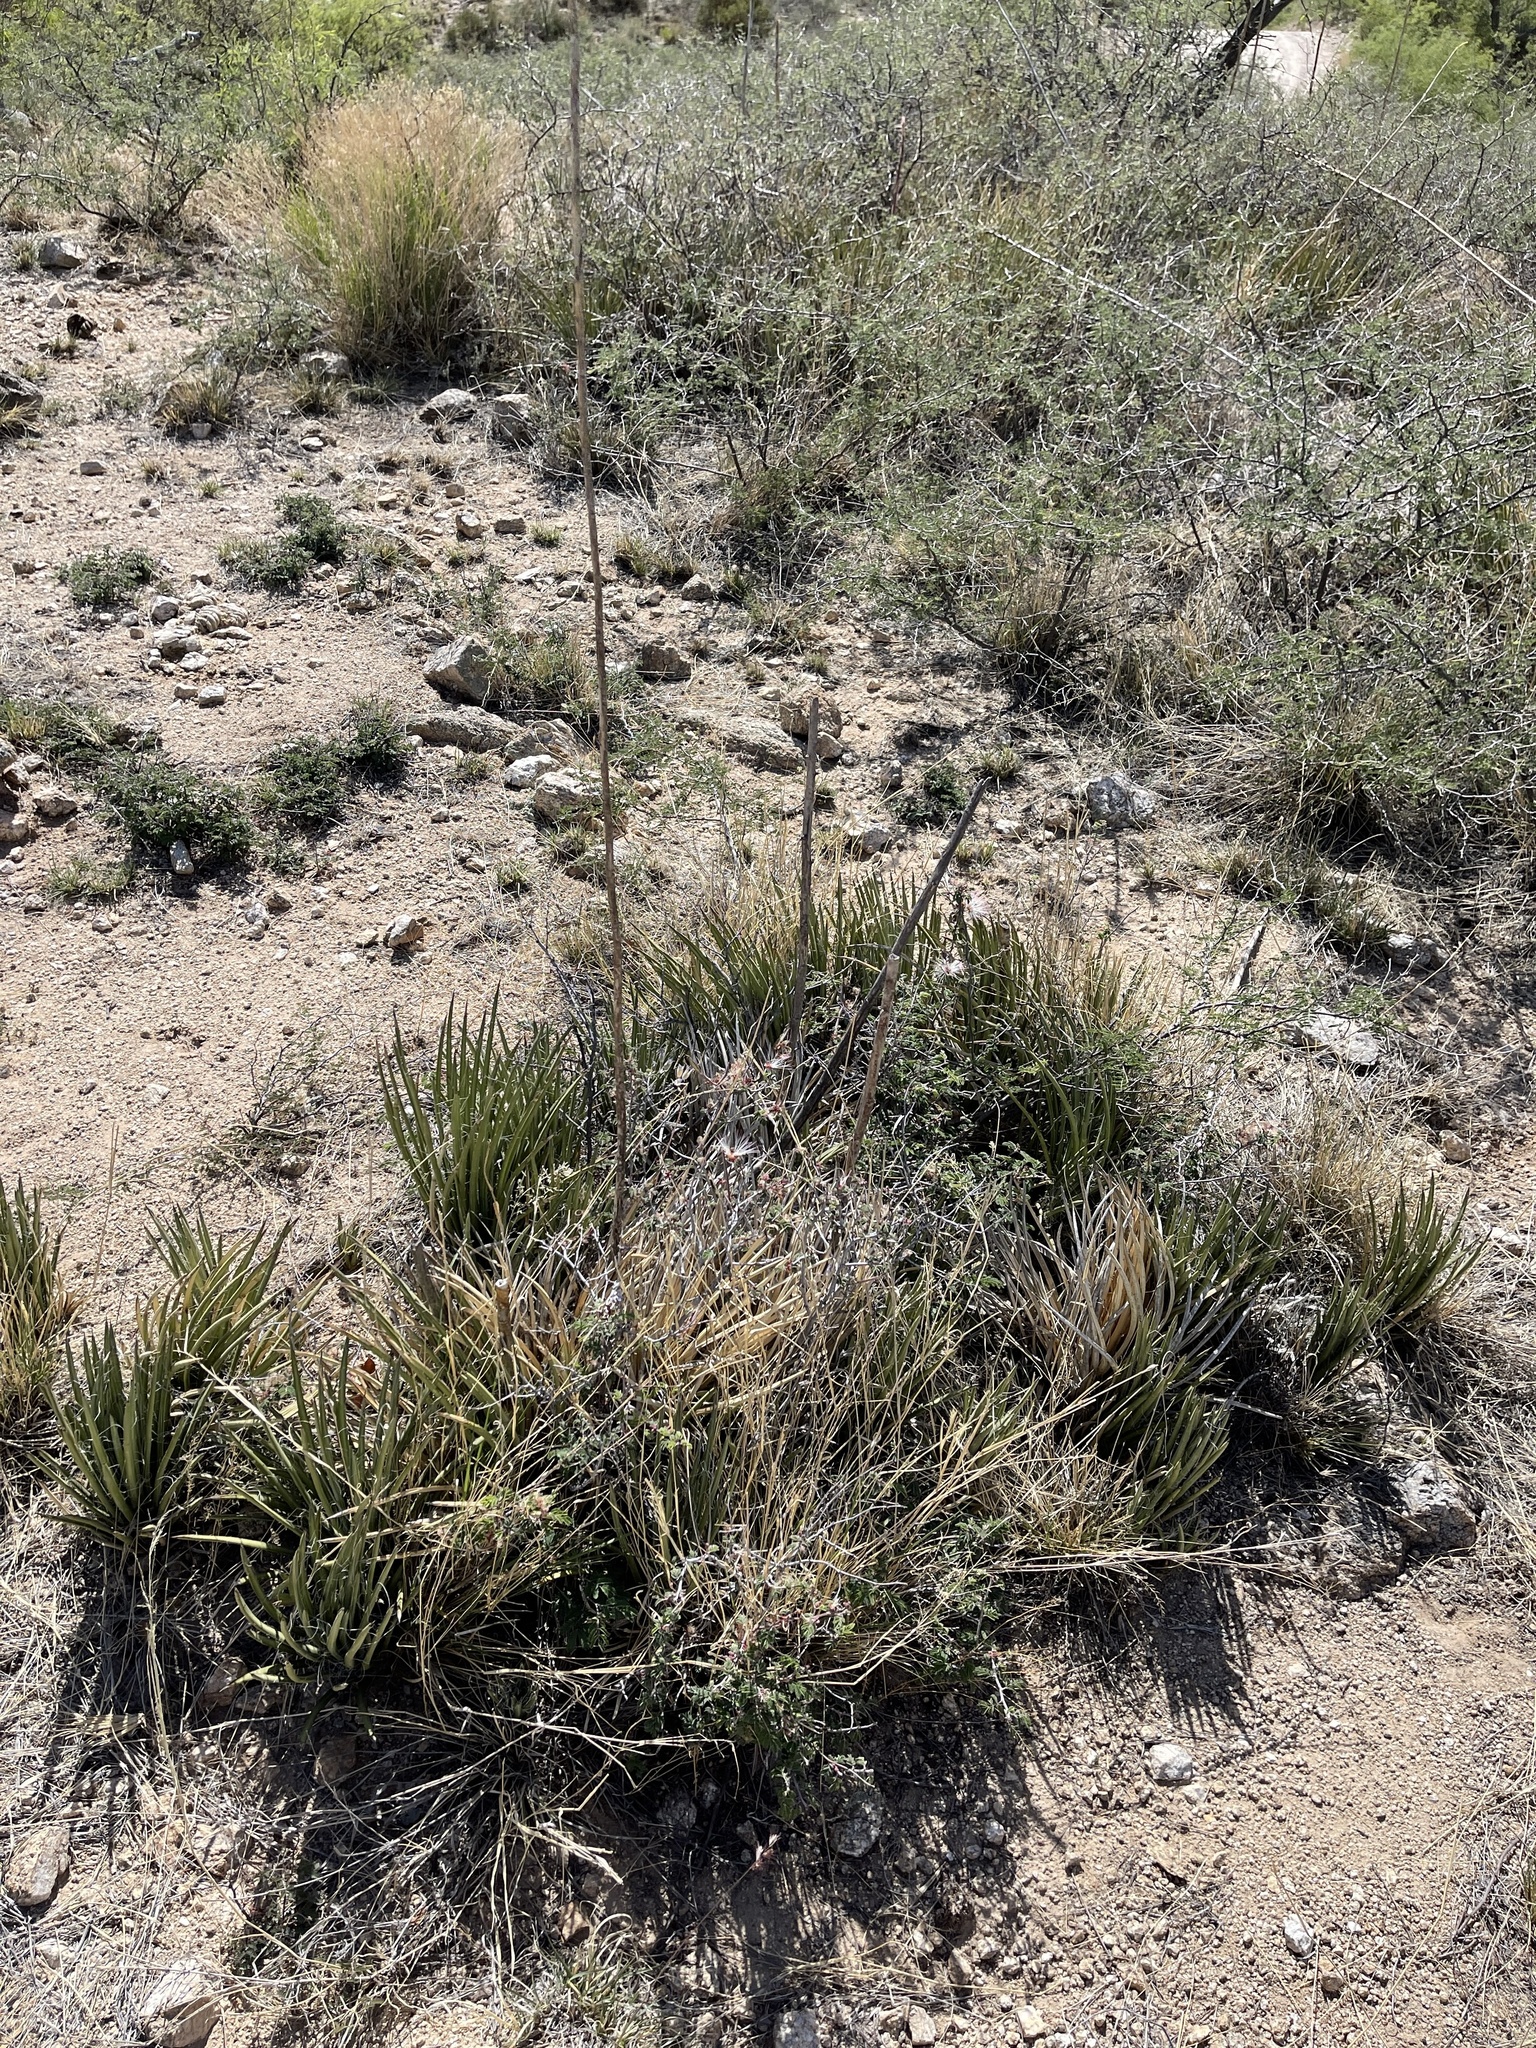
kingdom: Plantae
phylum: Tracheophyta
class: Liliopsida
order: Asparagales
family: Asparagaceae
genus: Agave
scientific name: Agave schottii
